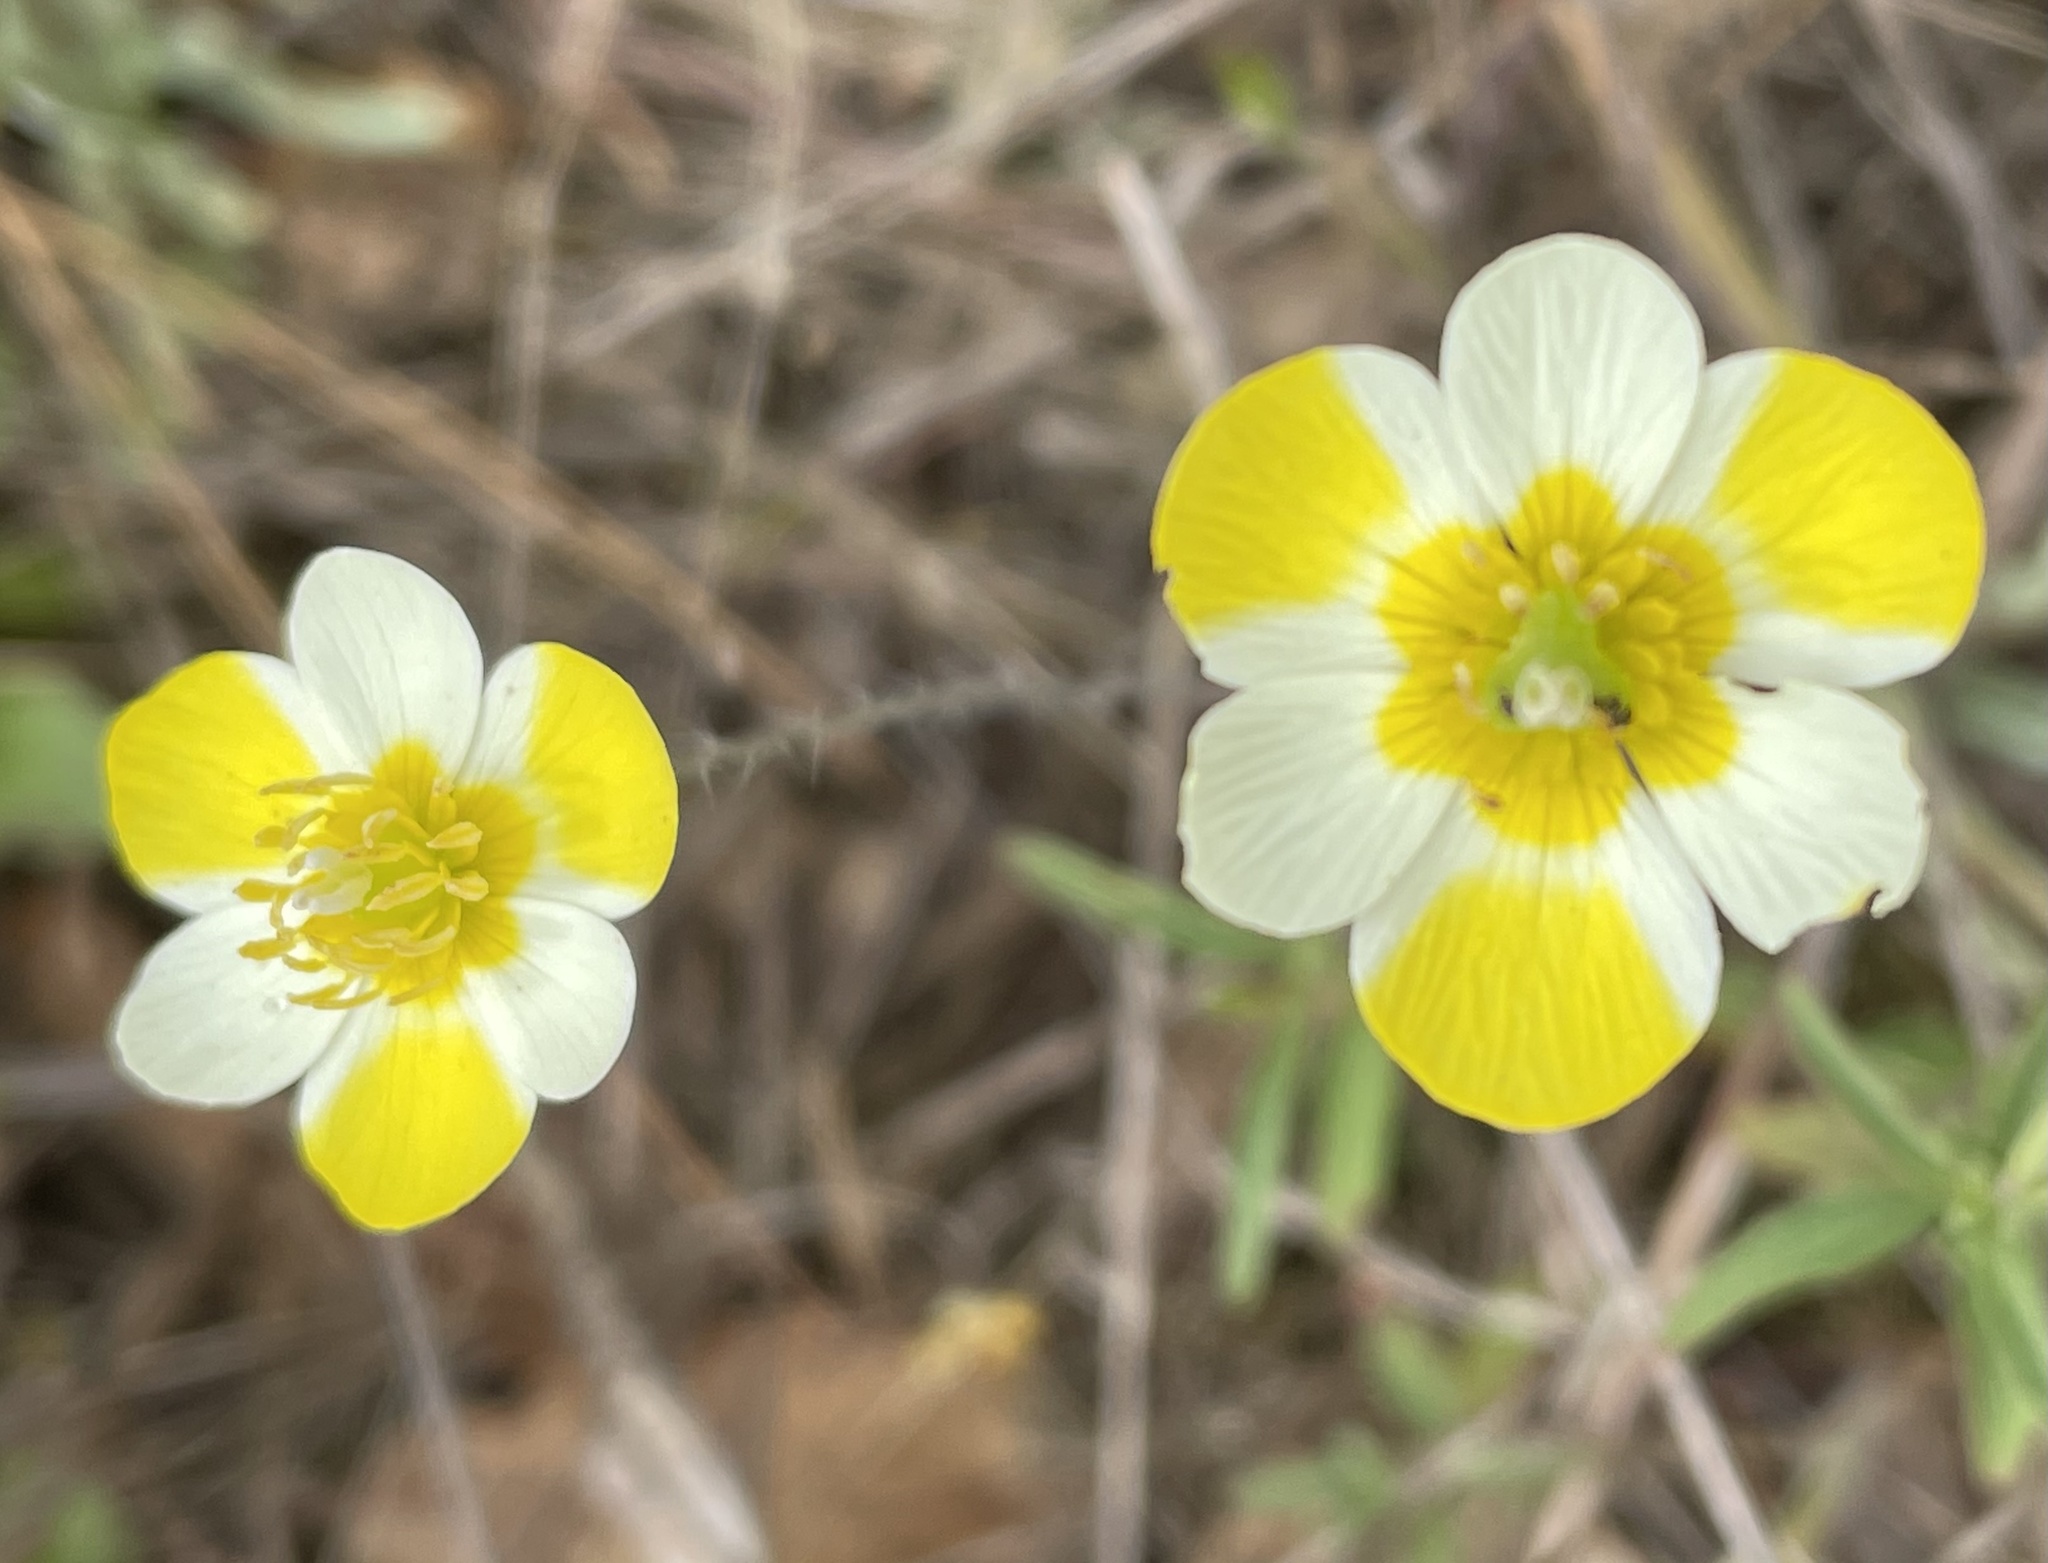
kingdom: Plantae
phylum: Tracheophyta
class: Magnoliopsida
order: Ranunculales
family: Papaveraceae
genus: Platystigma
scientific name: Platystigma lineare
